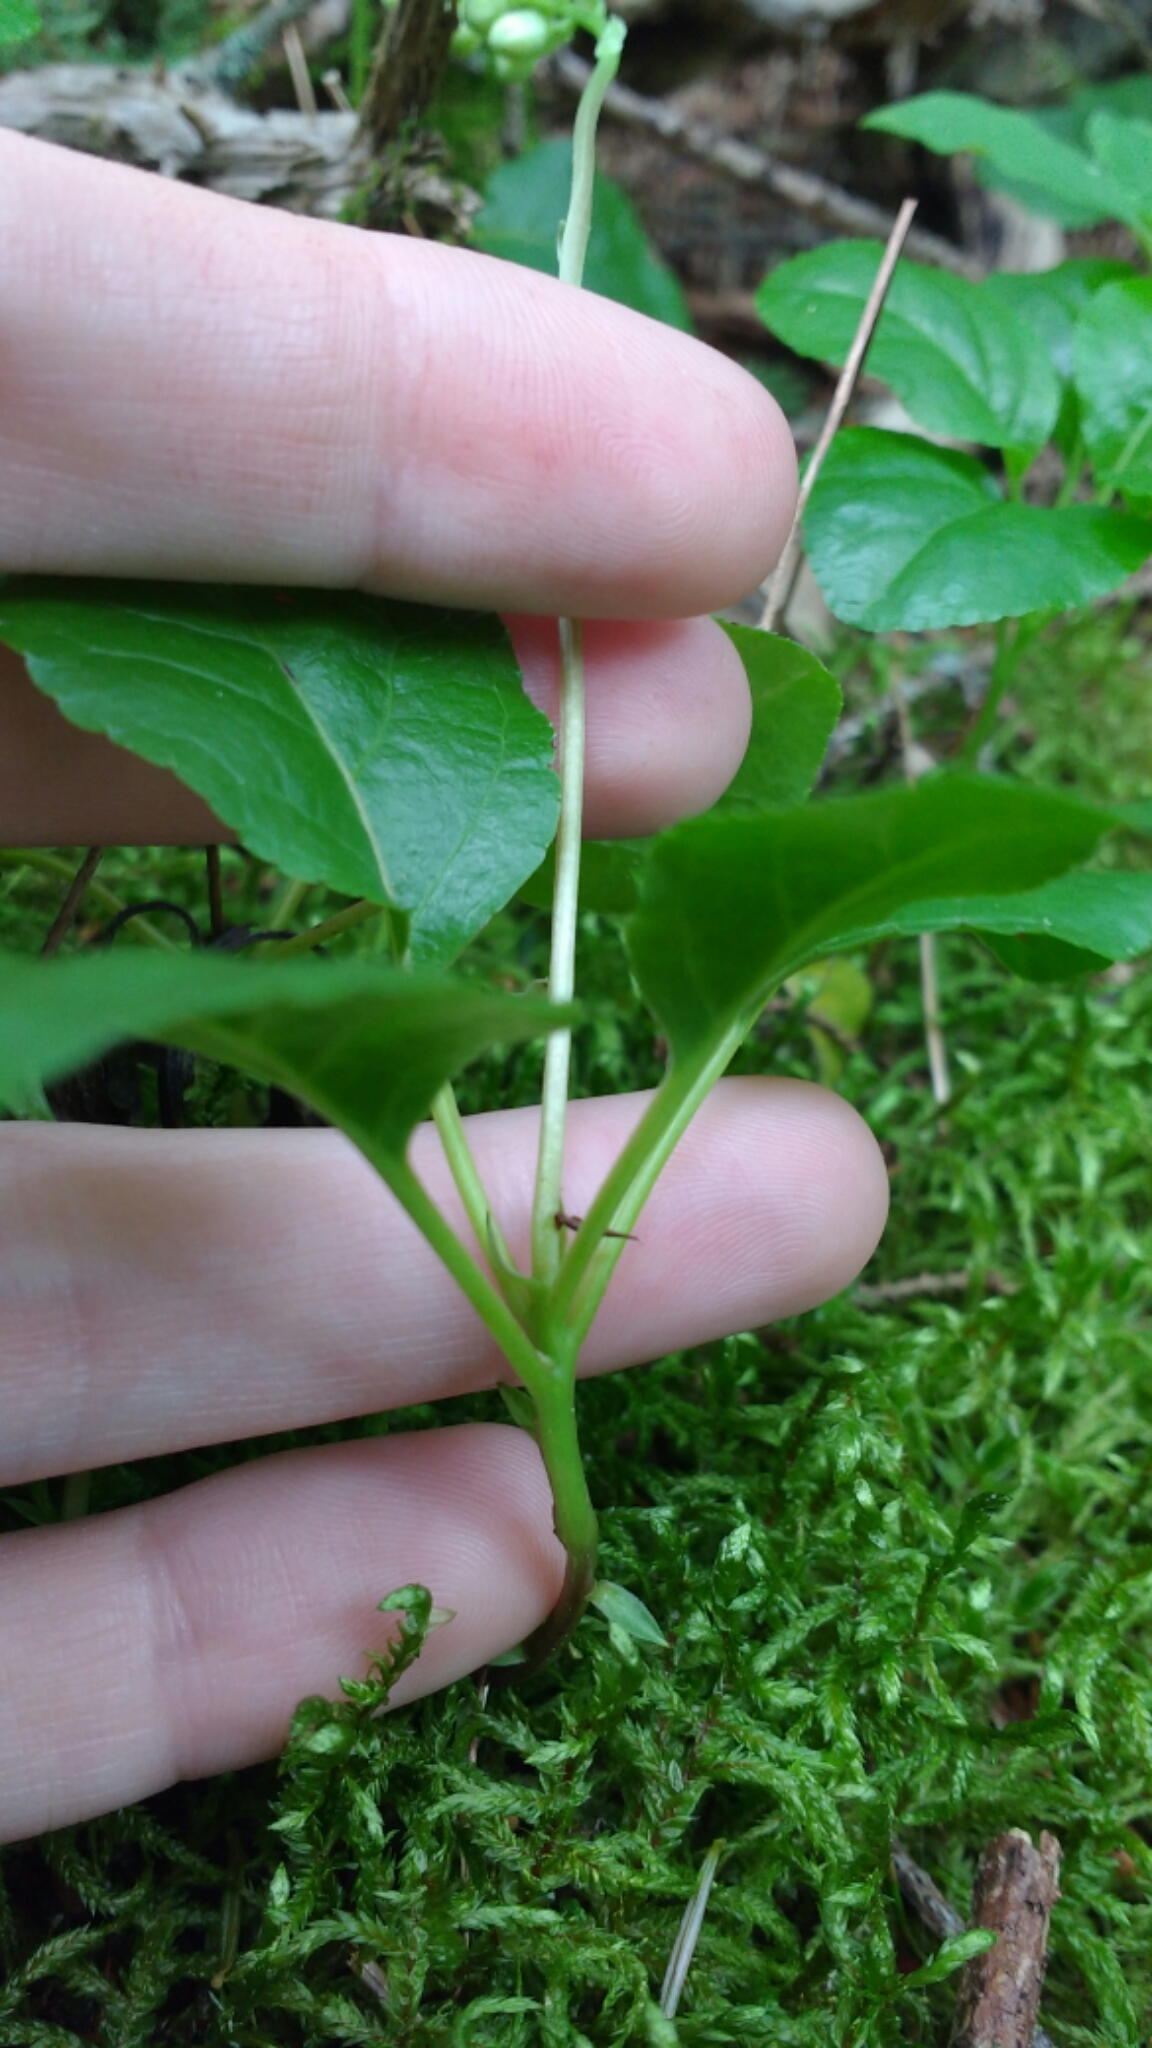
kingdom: Plantae
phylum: Tracheophyta
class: Magnoliopsida
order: Ericales
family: Ericaceae
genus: Orthilia
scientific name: Orthilia secunda
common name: One-sided orthilia
